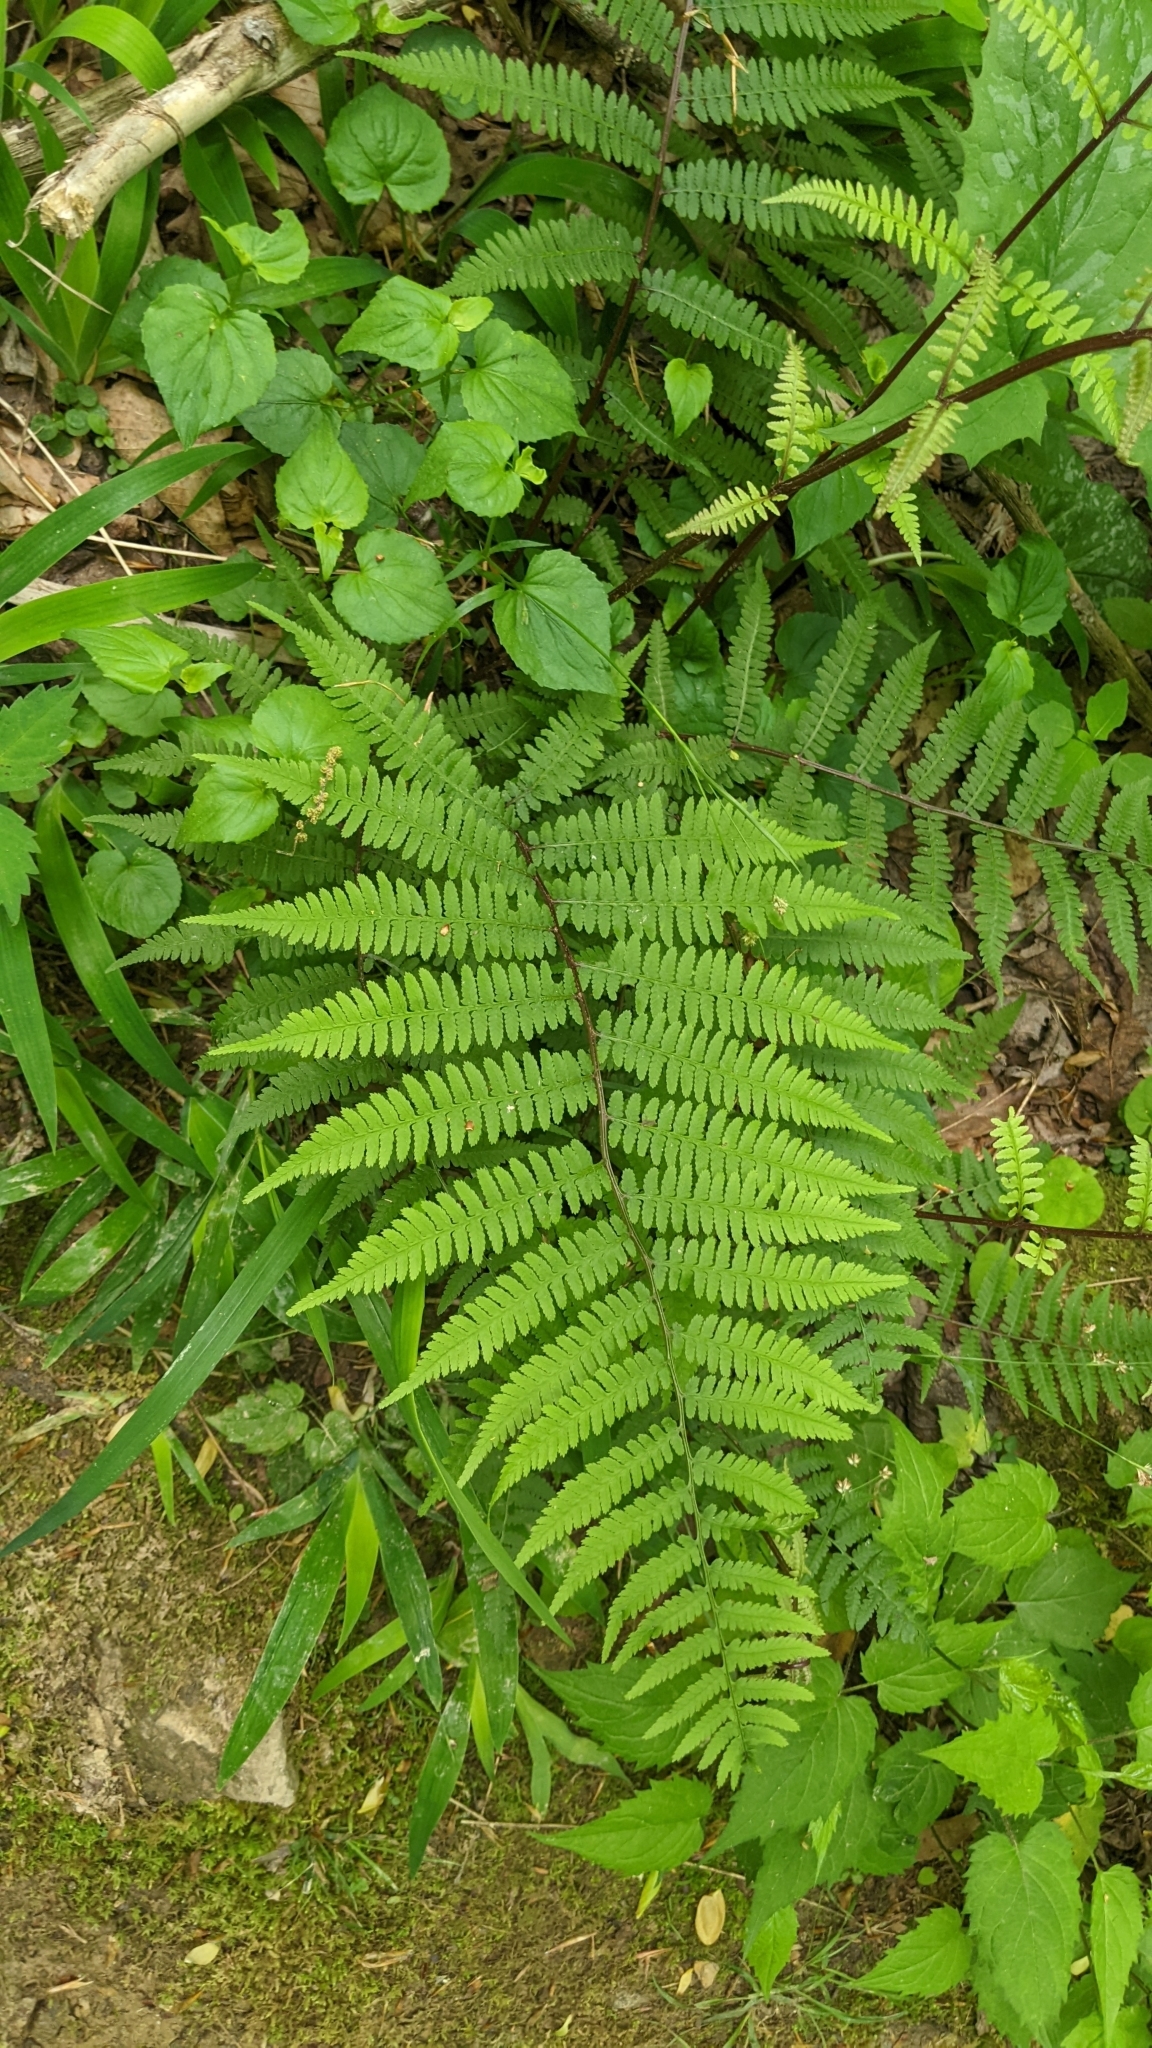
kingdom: Plantae
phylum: Tracheophyta
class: Polypodiopsida
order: Polypodiales
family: Athyriaceae
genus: Athyrium
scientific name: Athyrium asplenioides
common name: Southern lady fern
